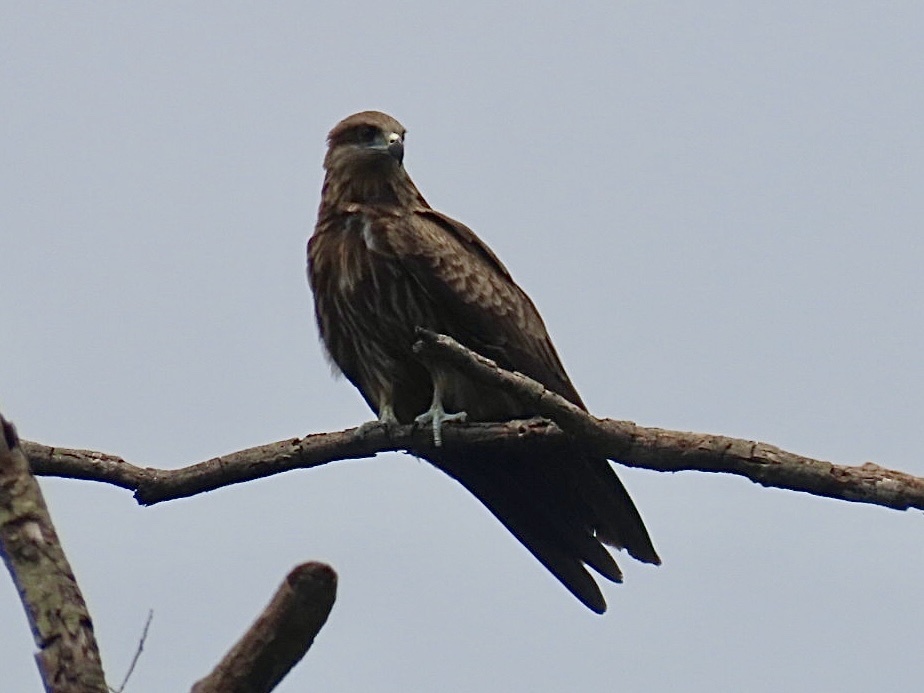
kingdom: Animalia
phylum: Chordata
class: Aves
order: Accipitriformes
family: Accipitridae
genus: Milvus
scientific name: Milvus migrans
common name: Black kite
